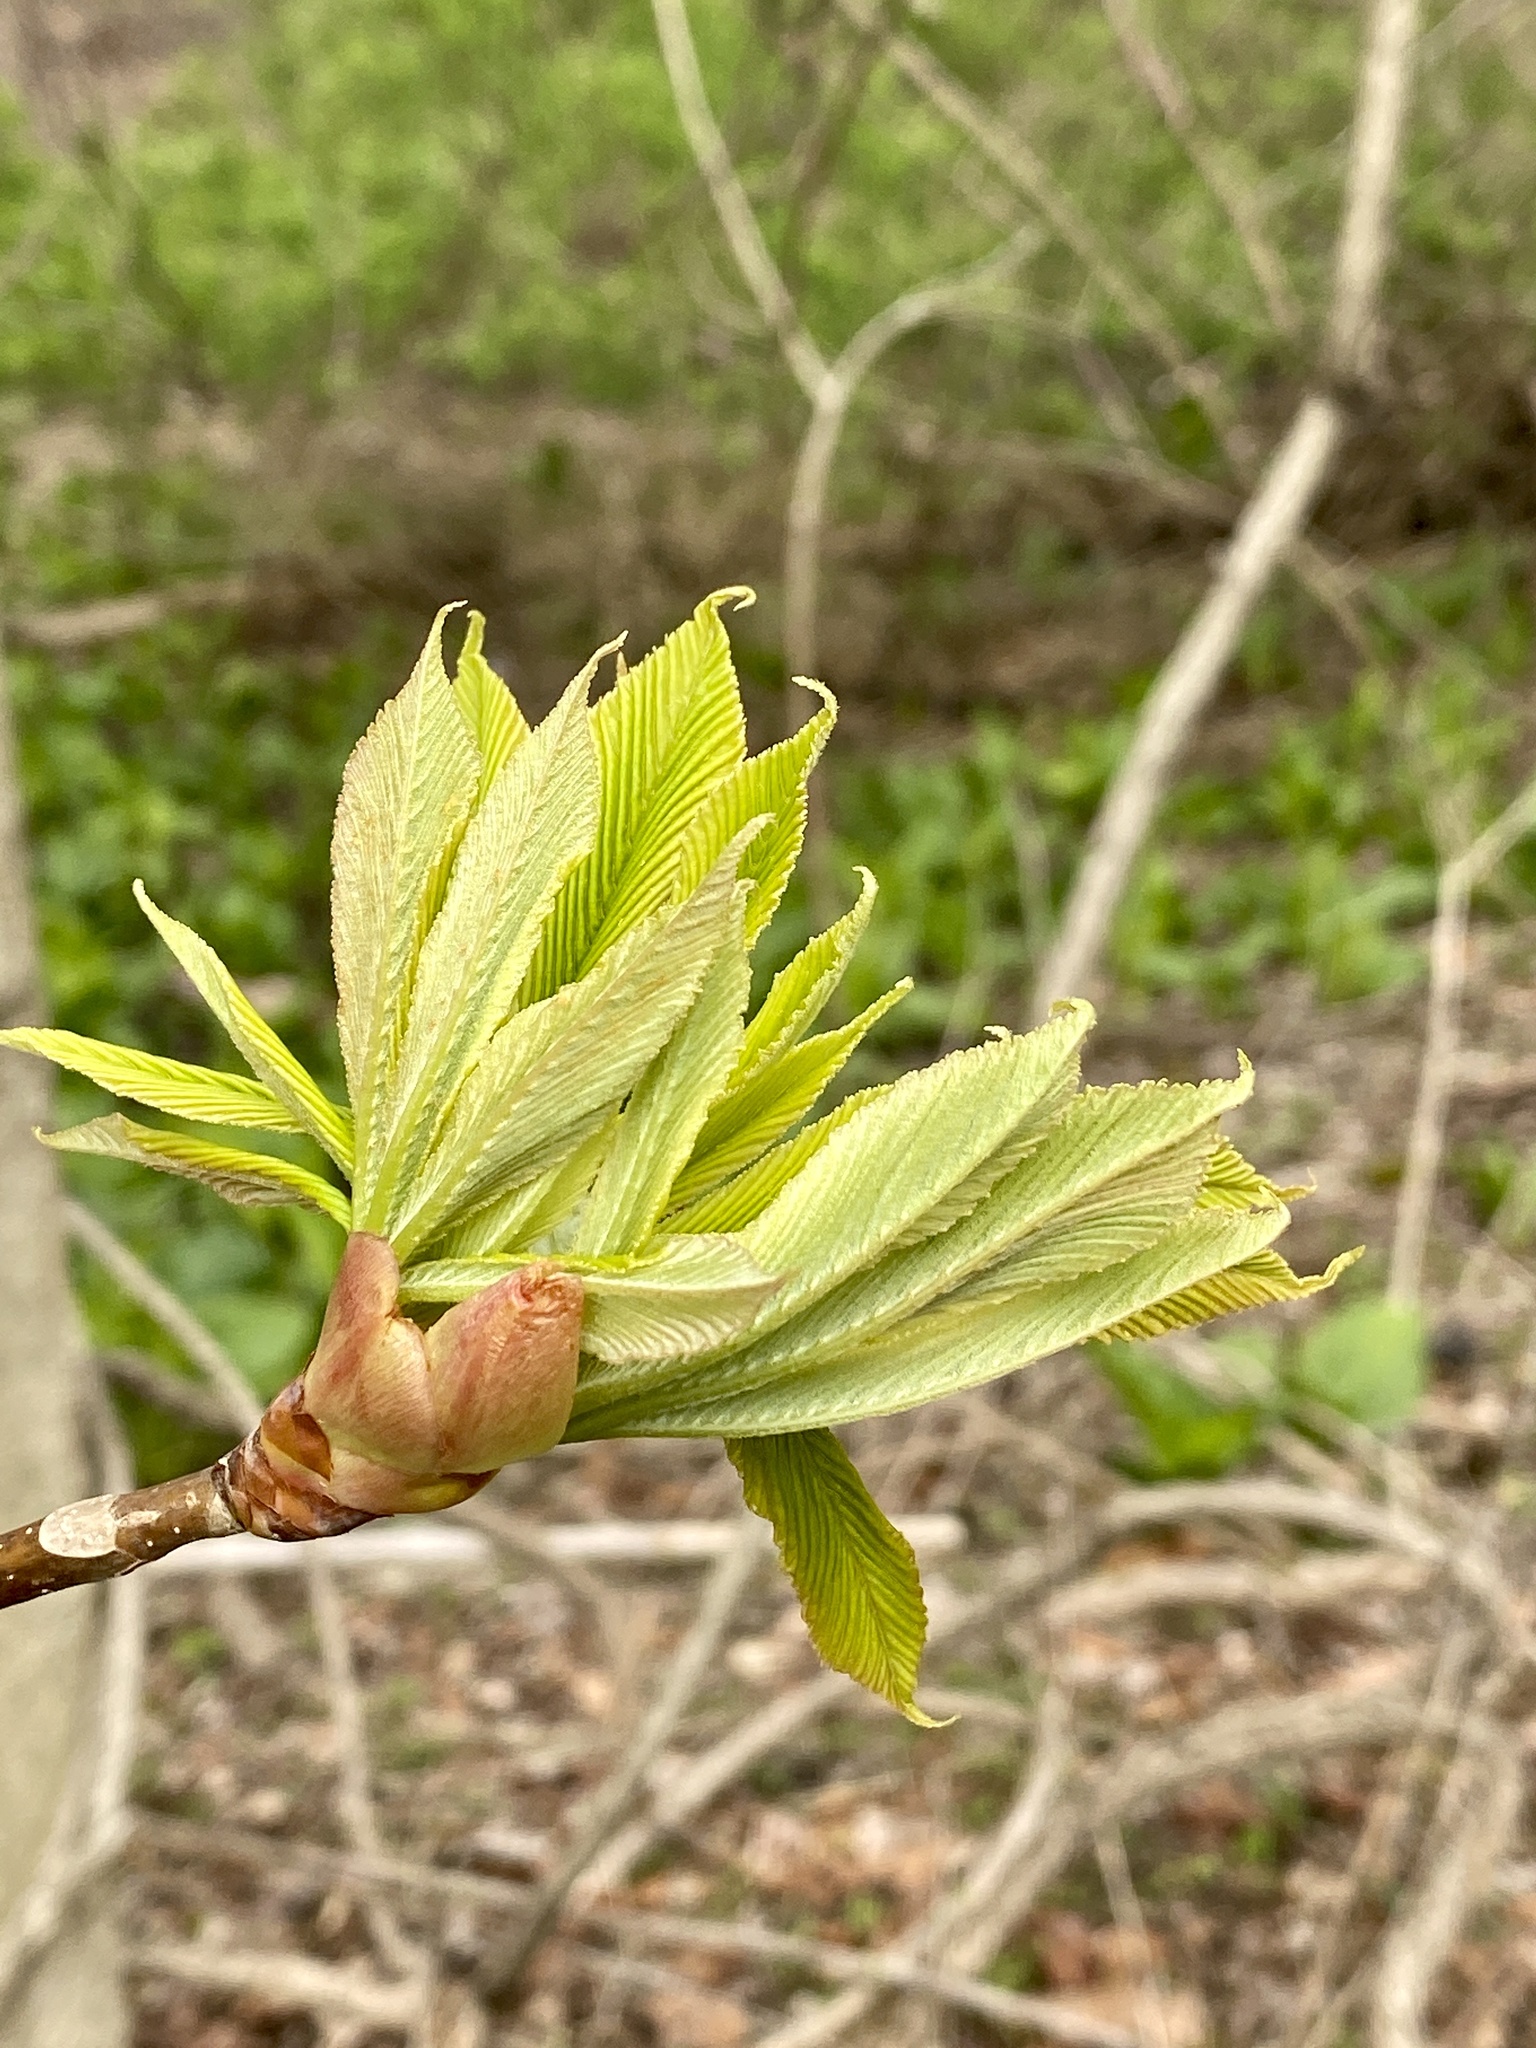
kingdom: Plantae
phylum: Tracheophyta
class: Magnoliopsida
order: Sapindales
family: Sapindaceae
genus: Aesculus
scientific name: Aesculus flava
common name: Yellow buckeye
